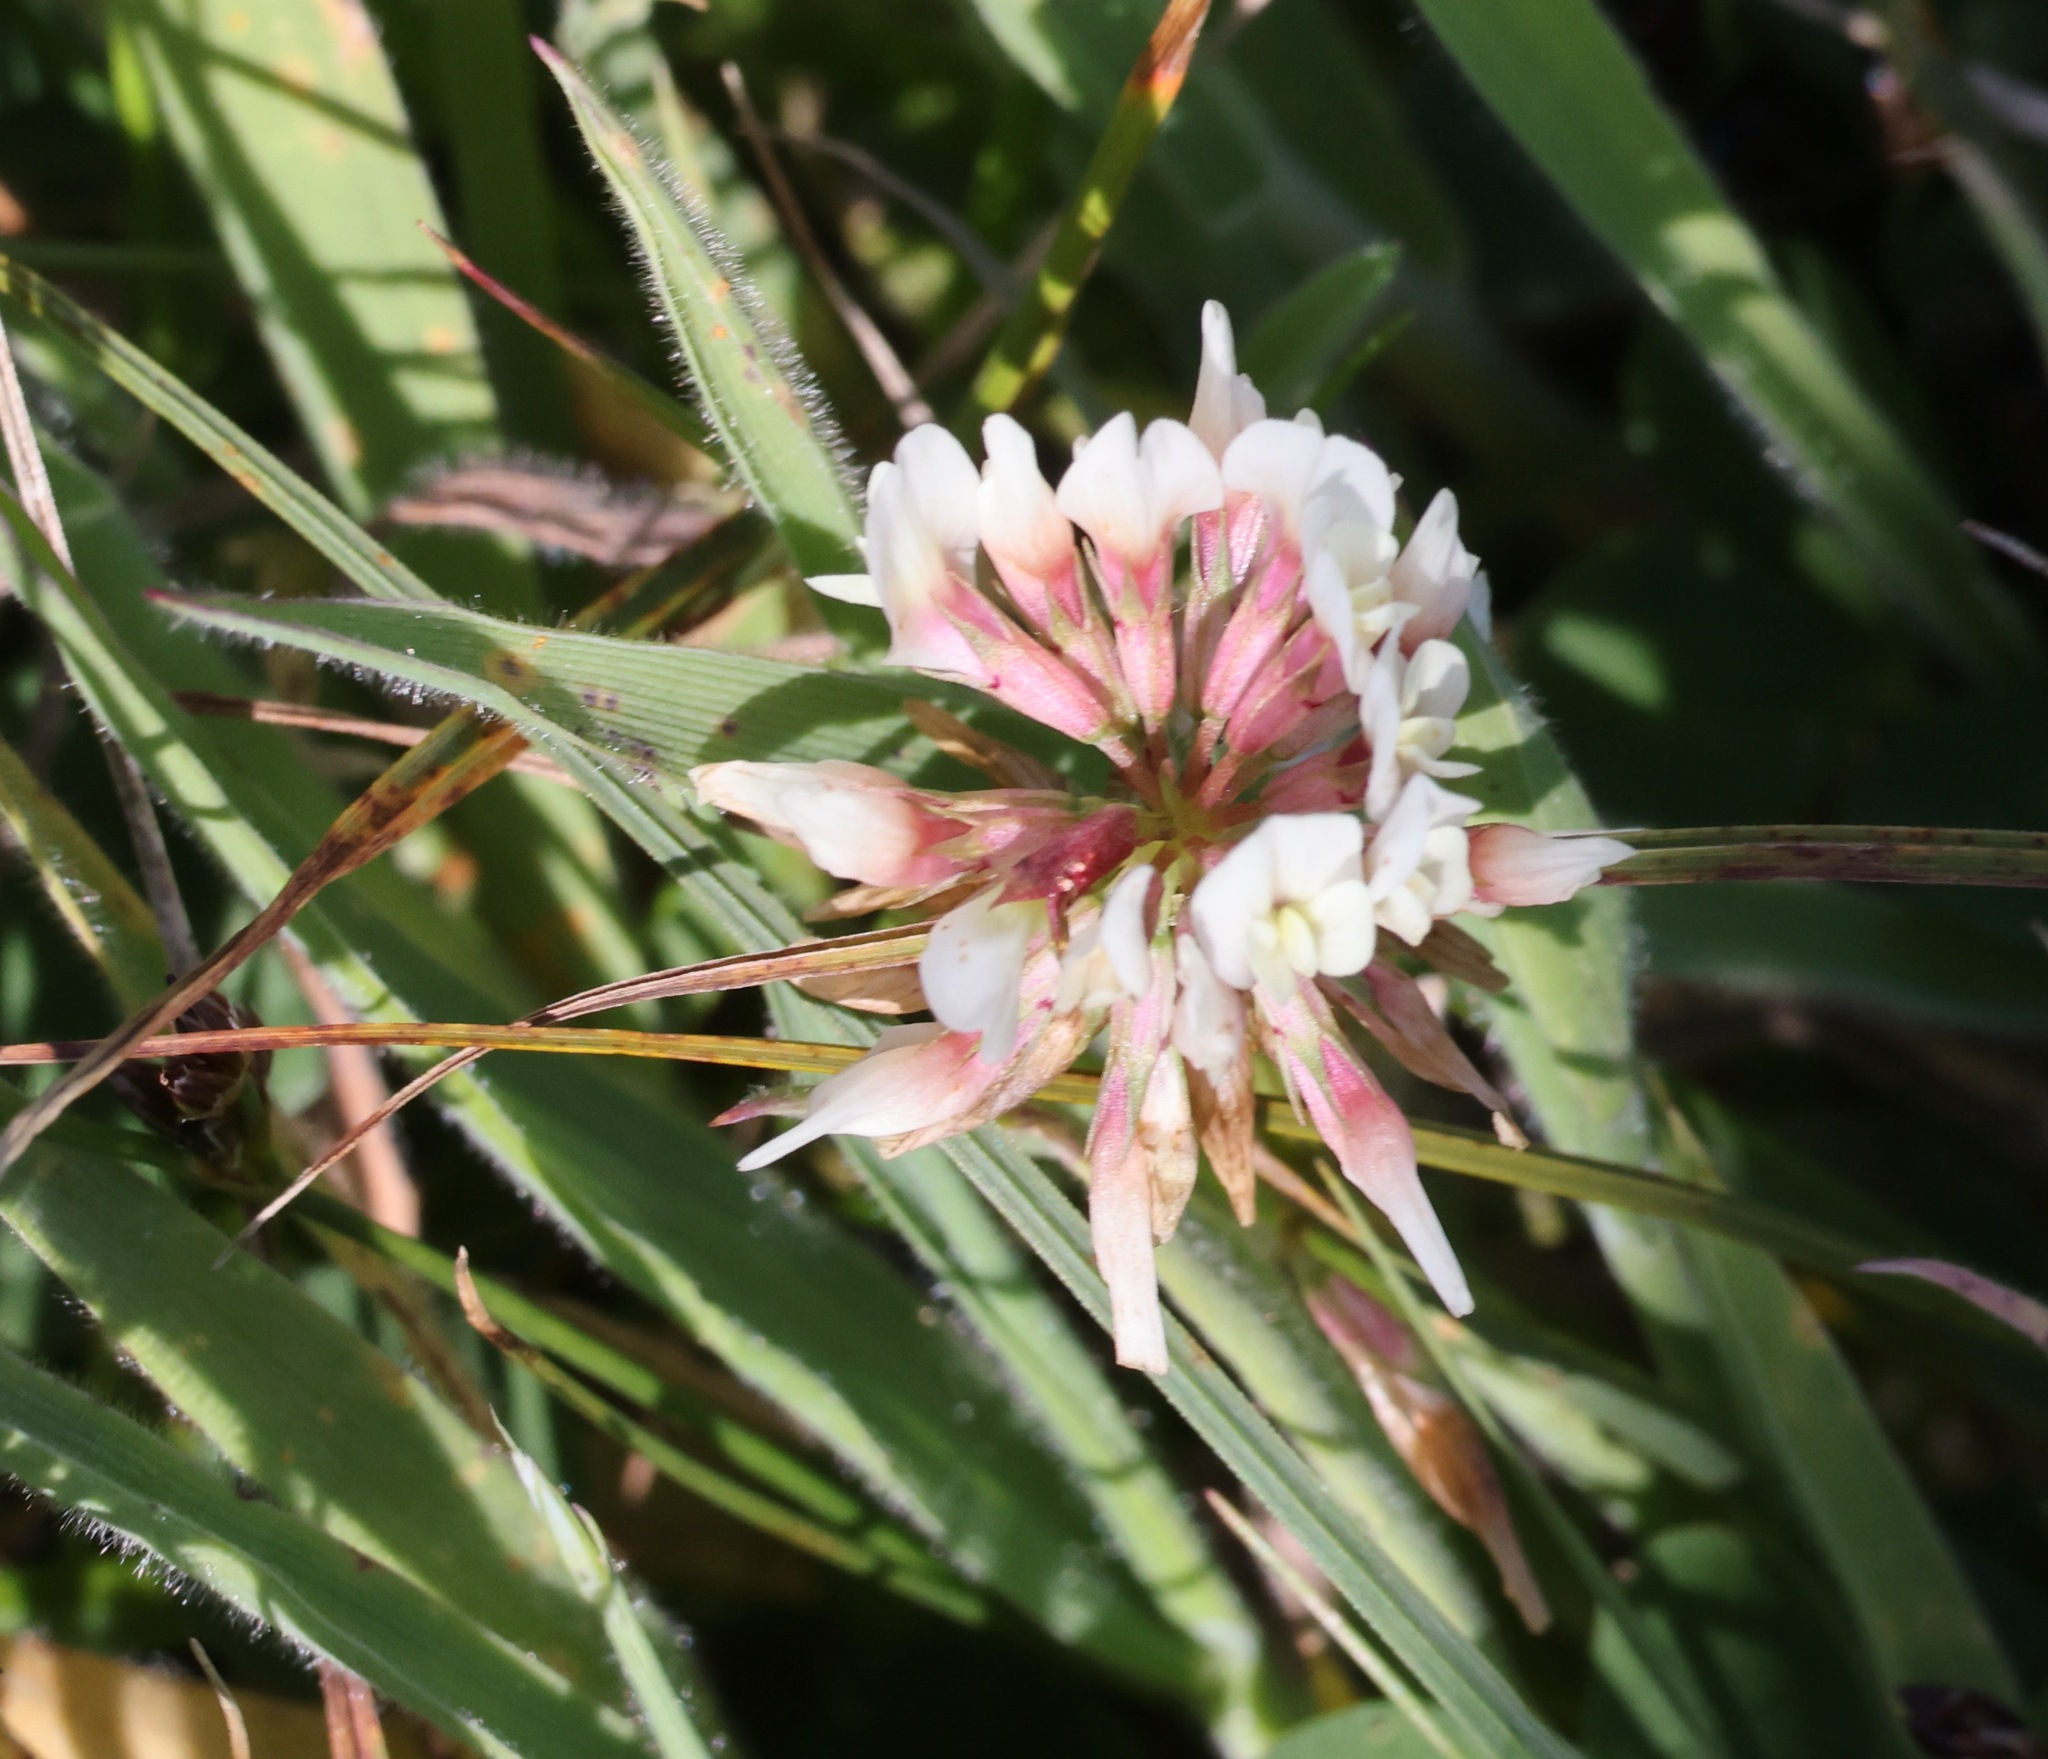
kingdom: Plantae
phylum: Tracheophyta
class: Magnoliopsida
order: Fabales
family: Fabaceae
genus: Trifolium
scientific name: Trifolium repens
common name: White clover
